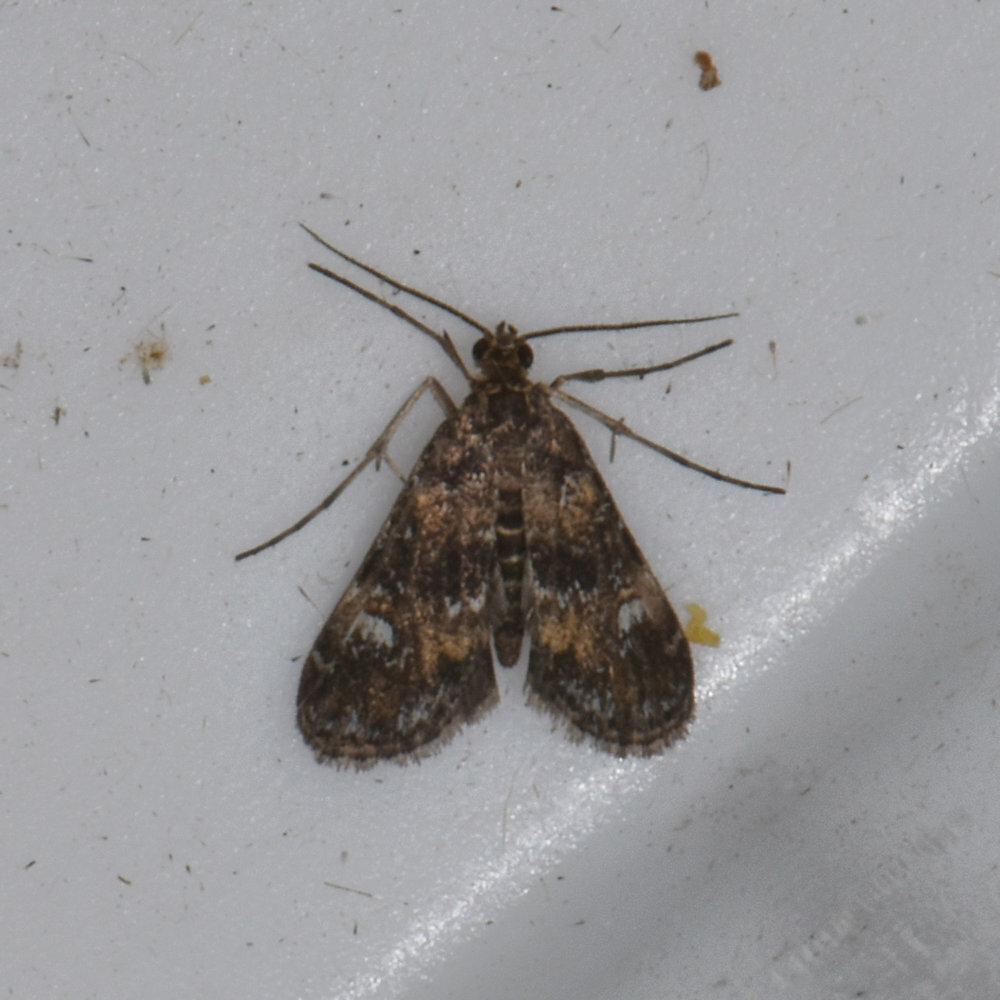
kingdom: Animalia
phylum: Arthropoda
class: Insecta
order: Lepidoptera
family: Crambidae
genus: Elophila
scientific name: Elophila obliteralis
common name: Waterlily leafcutter moth
